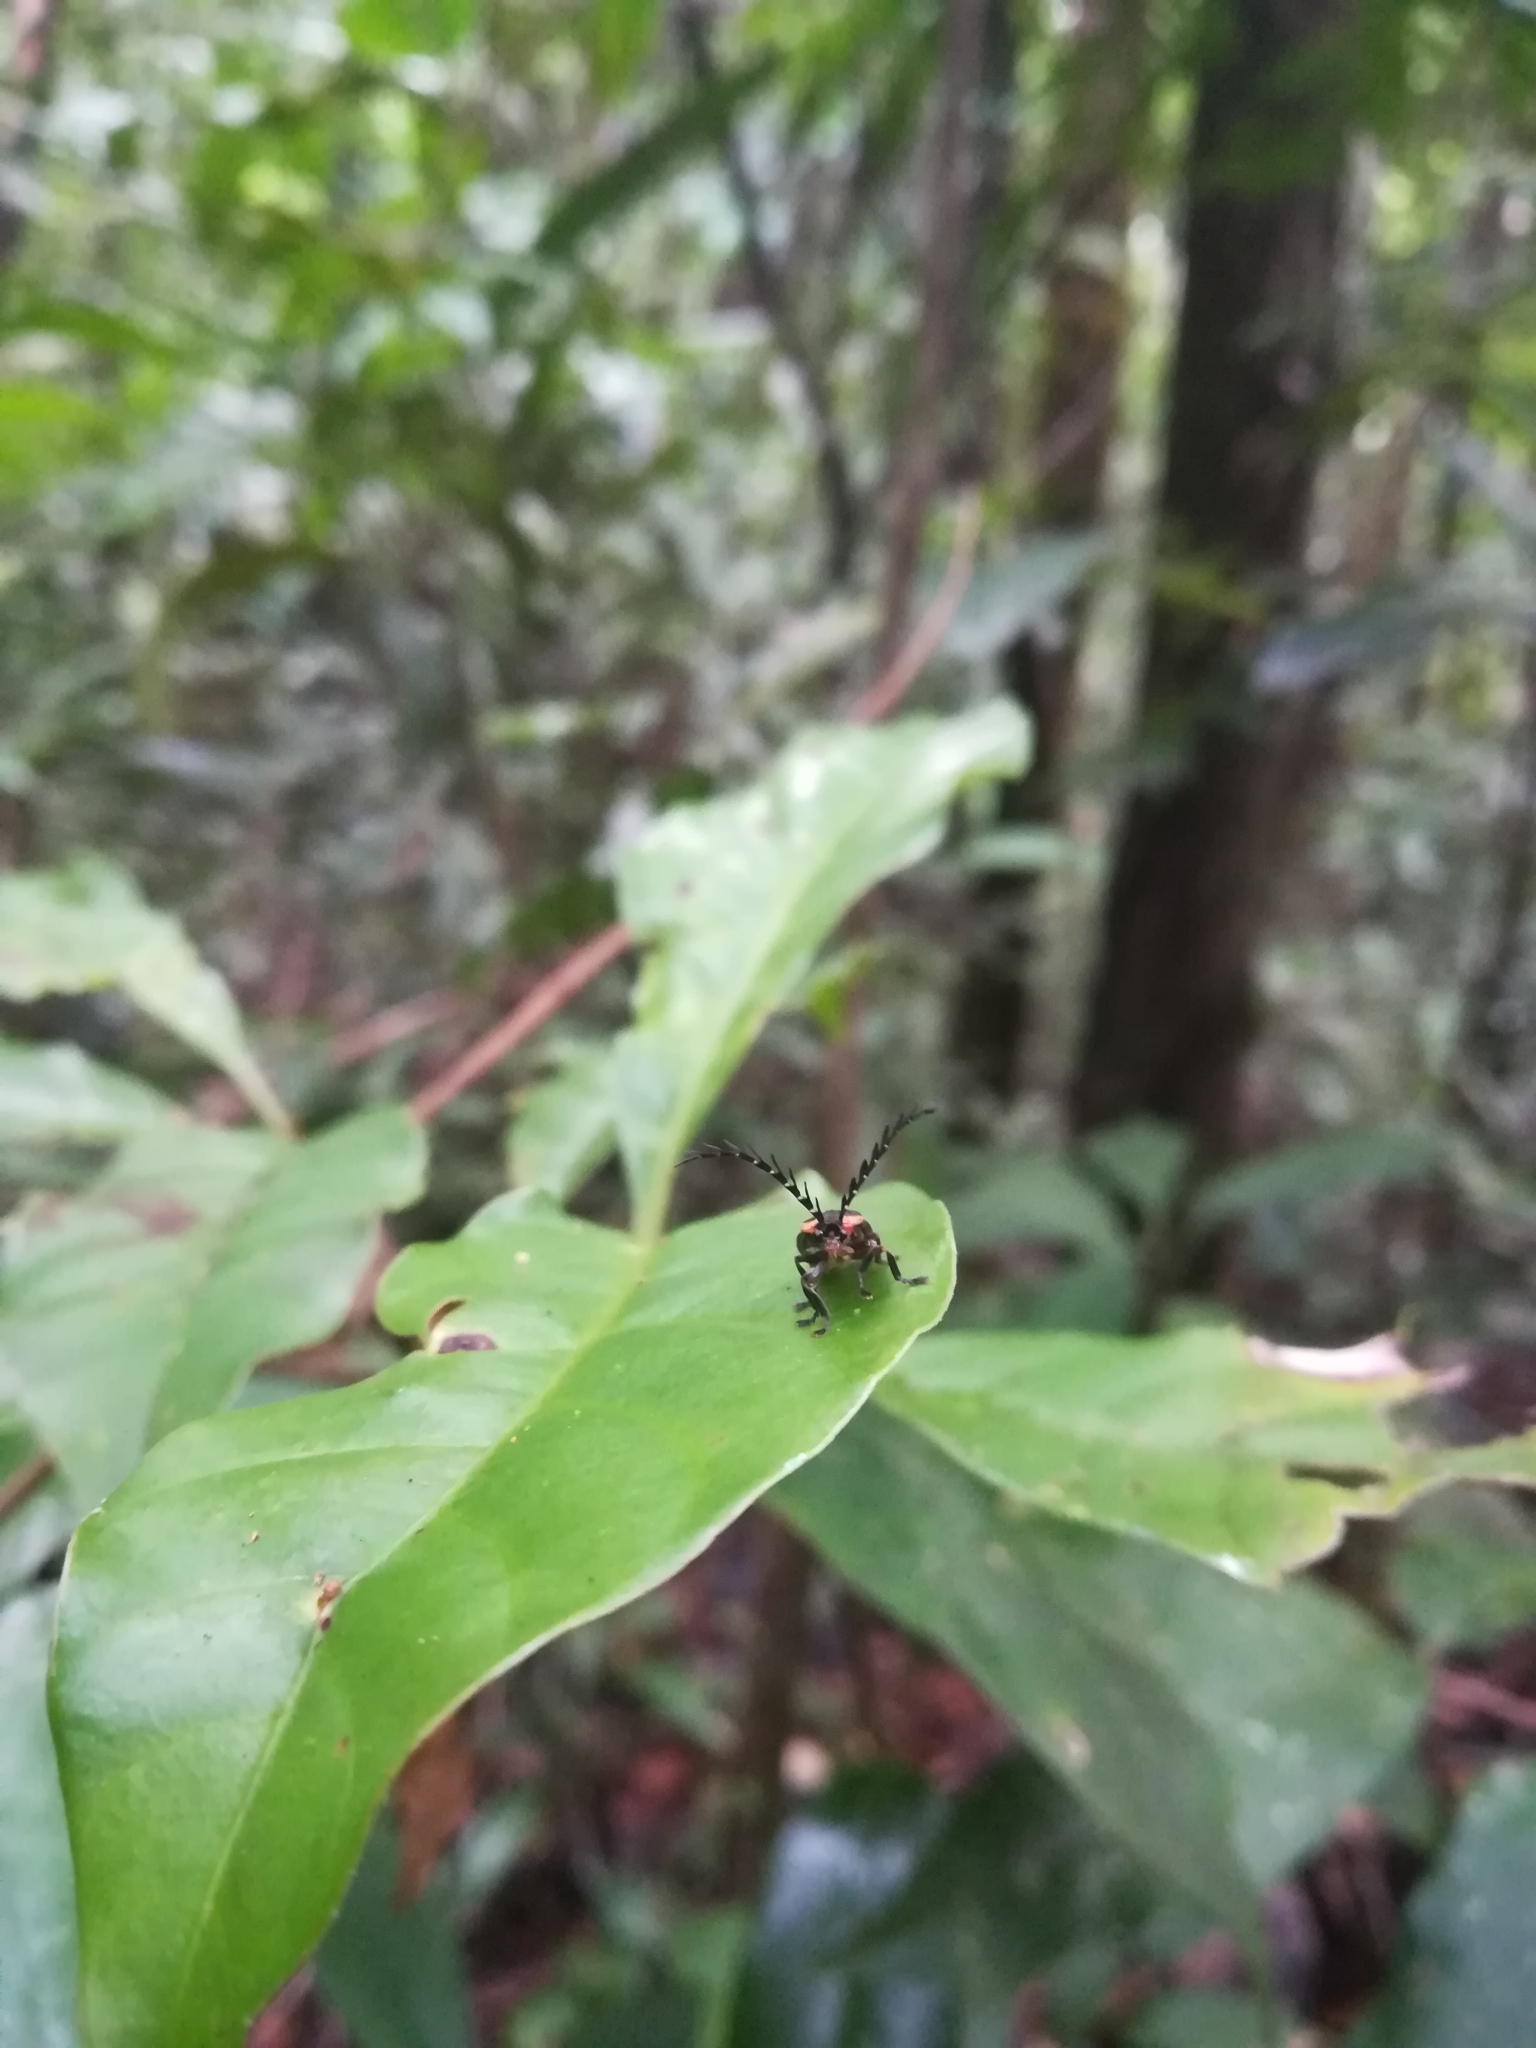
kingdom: Animalia
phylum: Arthropoda
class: Insecta
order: Coleoptera
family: Lampyridae
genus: Lucidota
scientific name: Lucidota pennata
